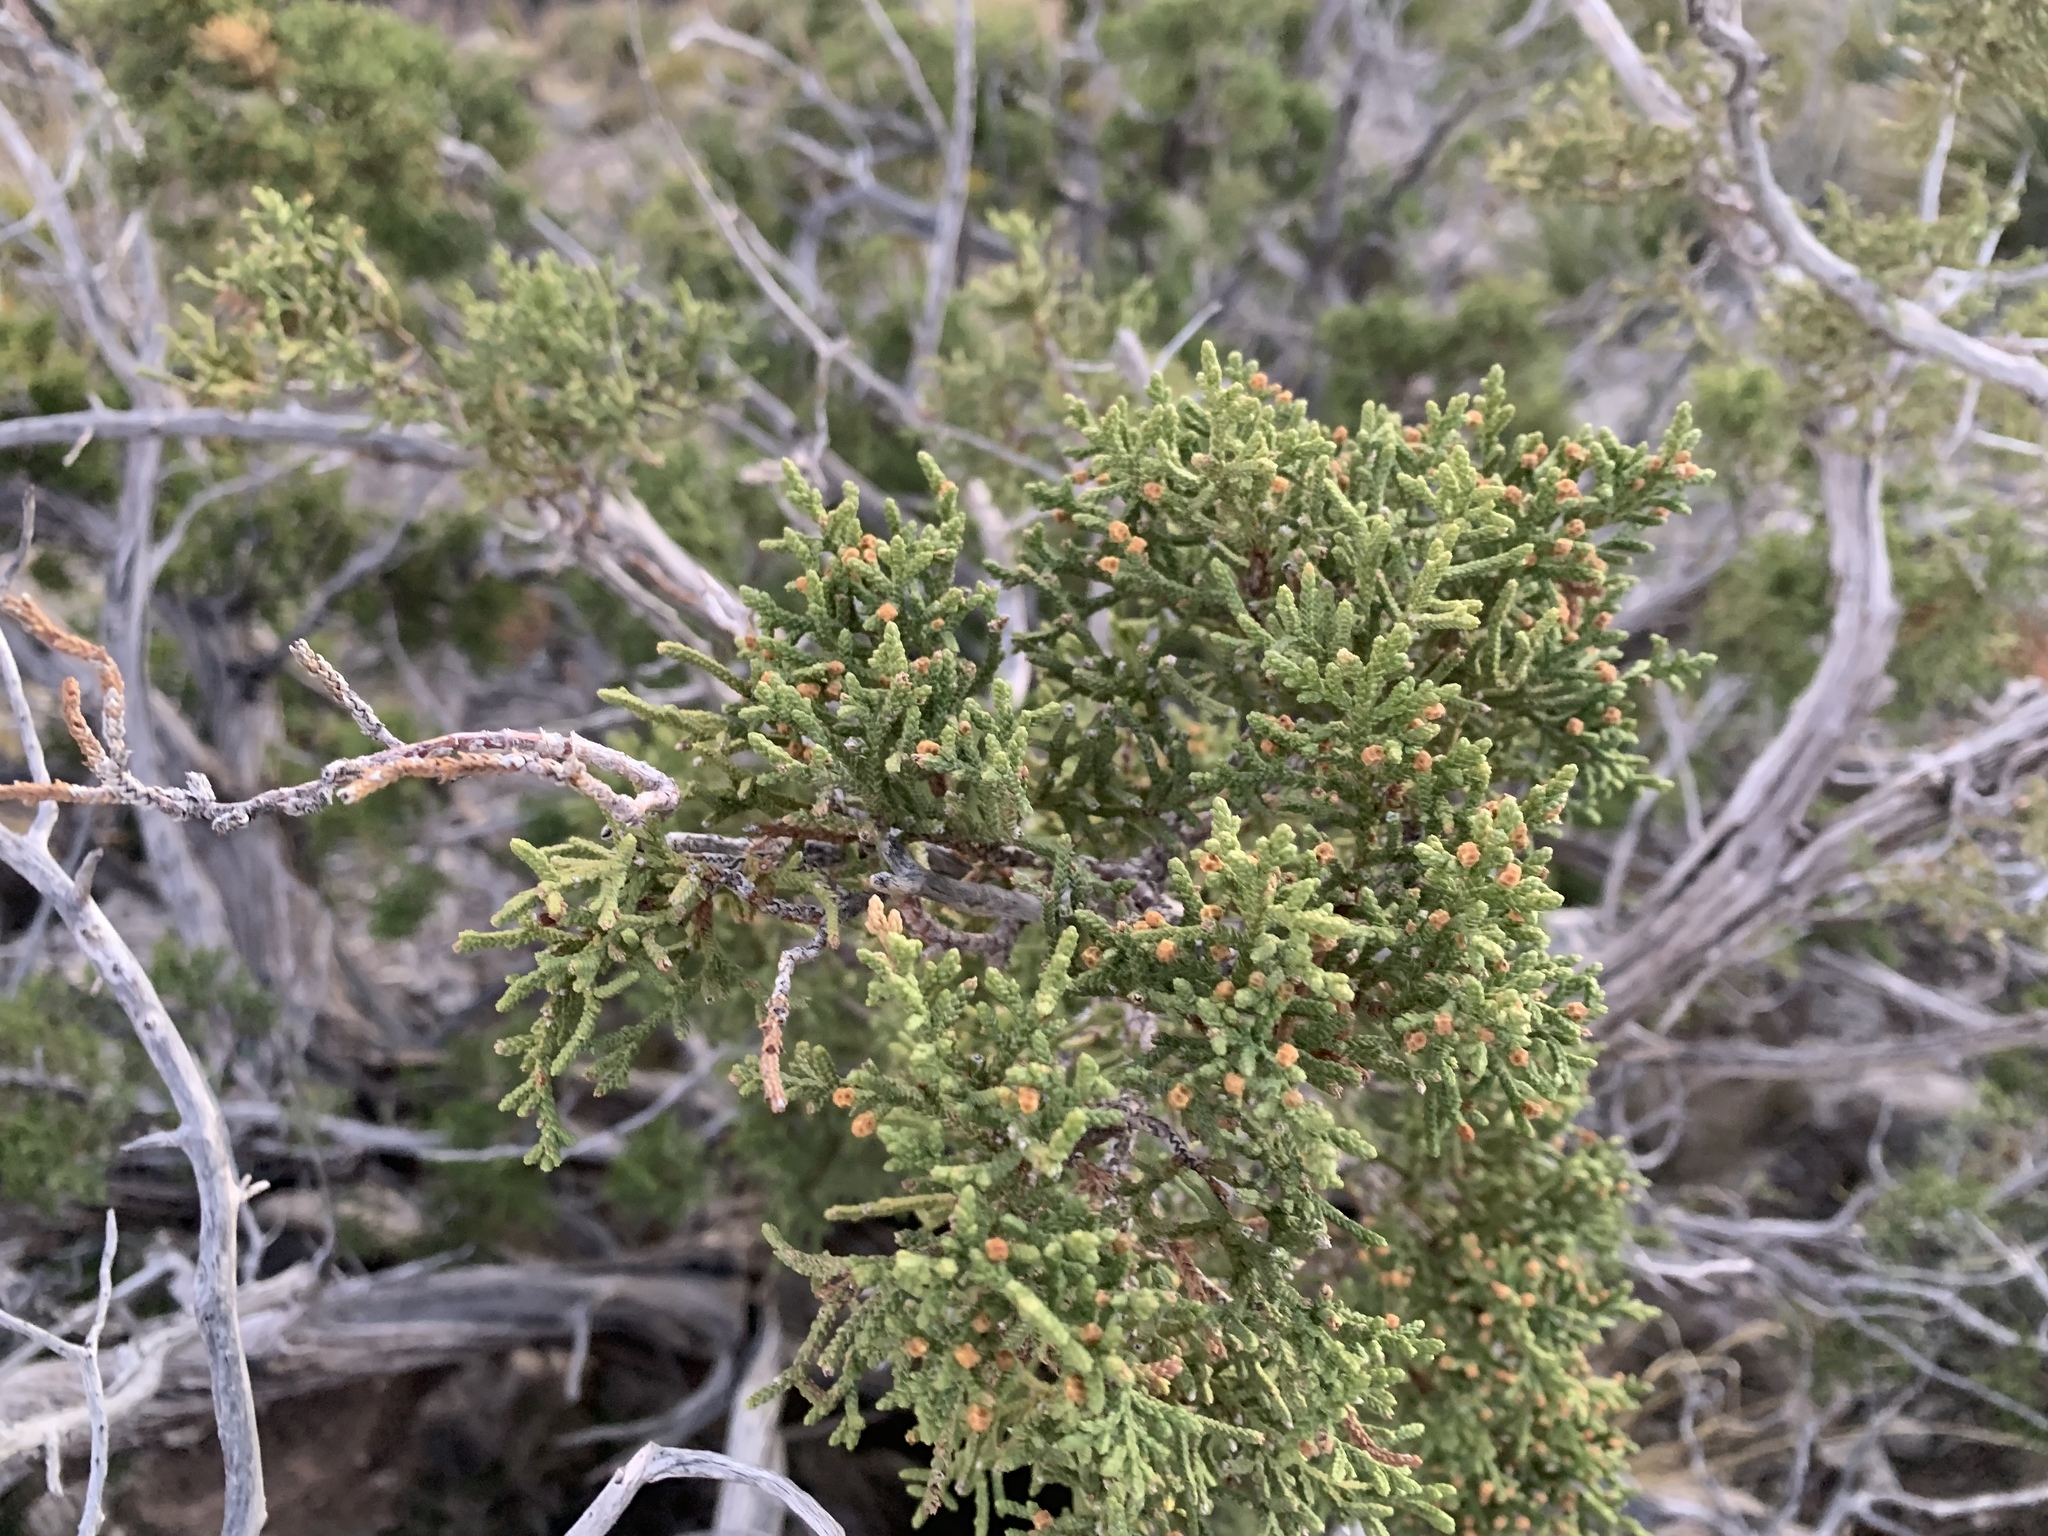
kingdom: Plantae
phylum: Tracheophyta
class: Pinopsida
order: Pinales
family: Cupressaceae
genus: Juniperus
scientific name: Juniperus monosperma
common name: One-seed juniper
